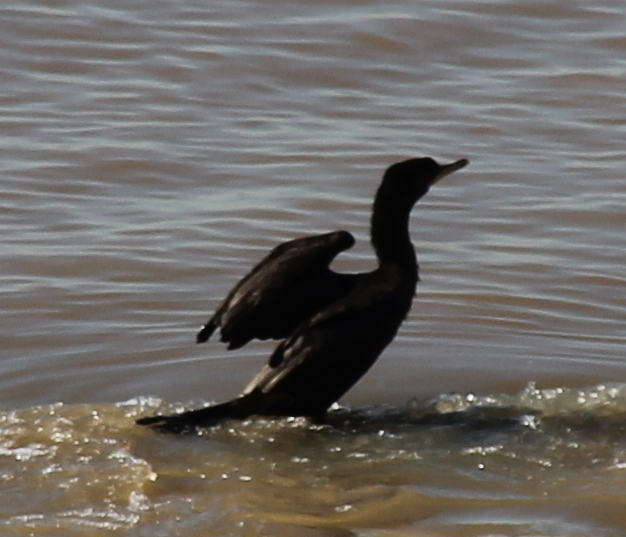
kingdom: Animalia
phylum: Chordata
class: Aves
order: Suliformes
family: Phalacrocoracidae
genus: Phalacrocorax
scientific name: Phalacrocorax brasilianus
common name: Neotropic cormorant
